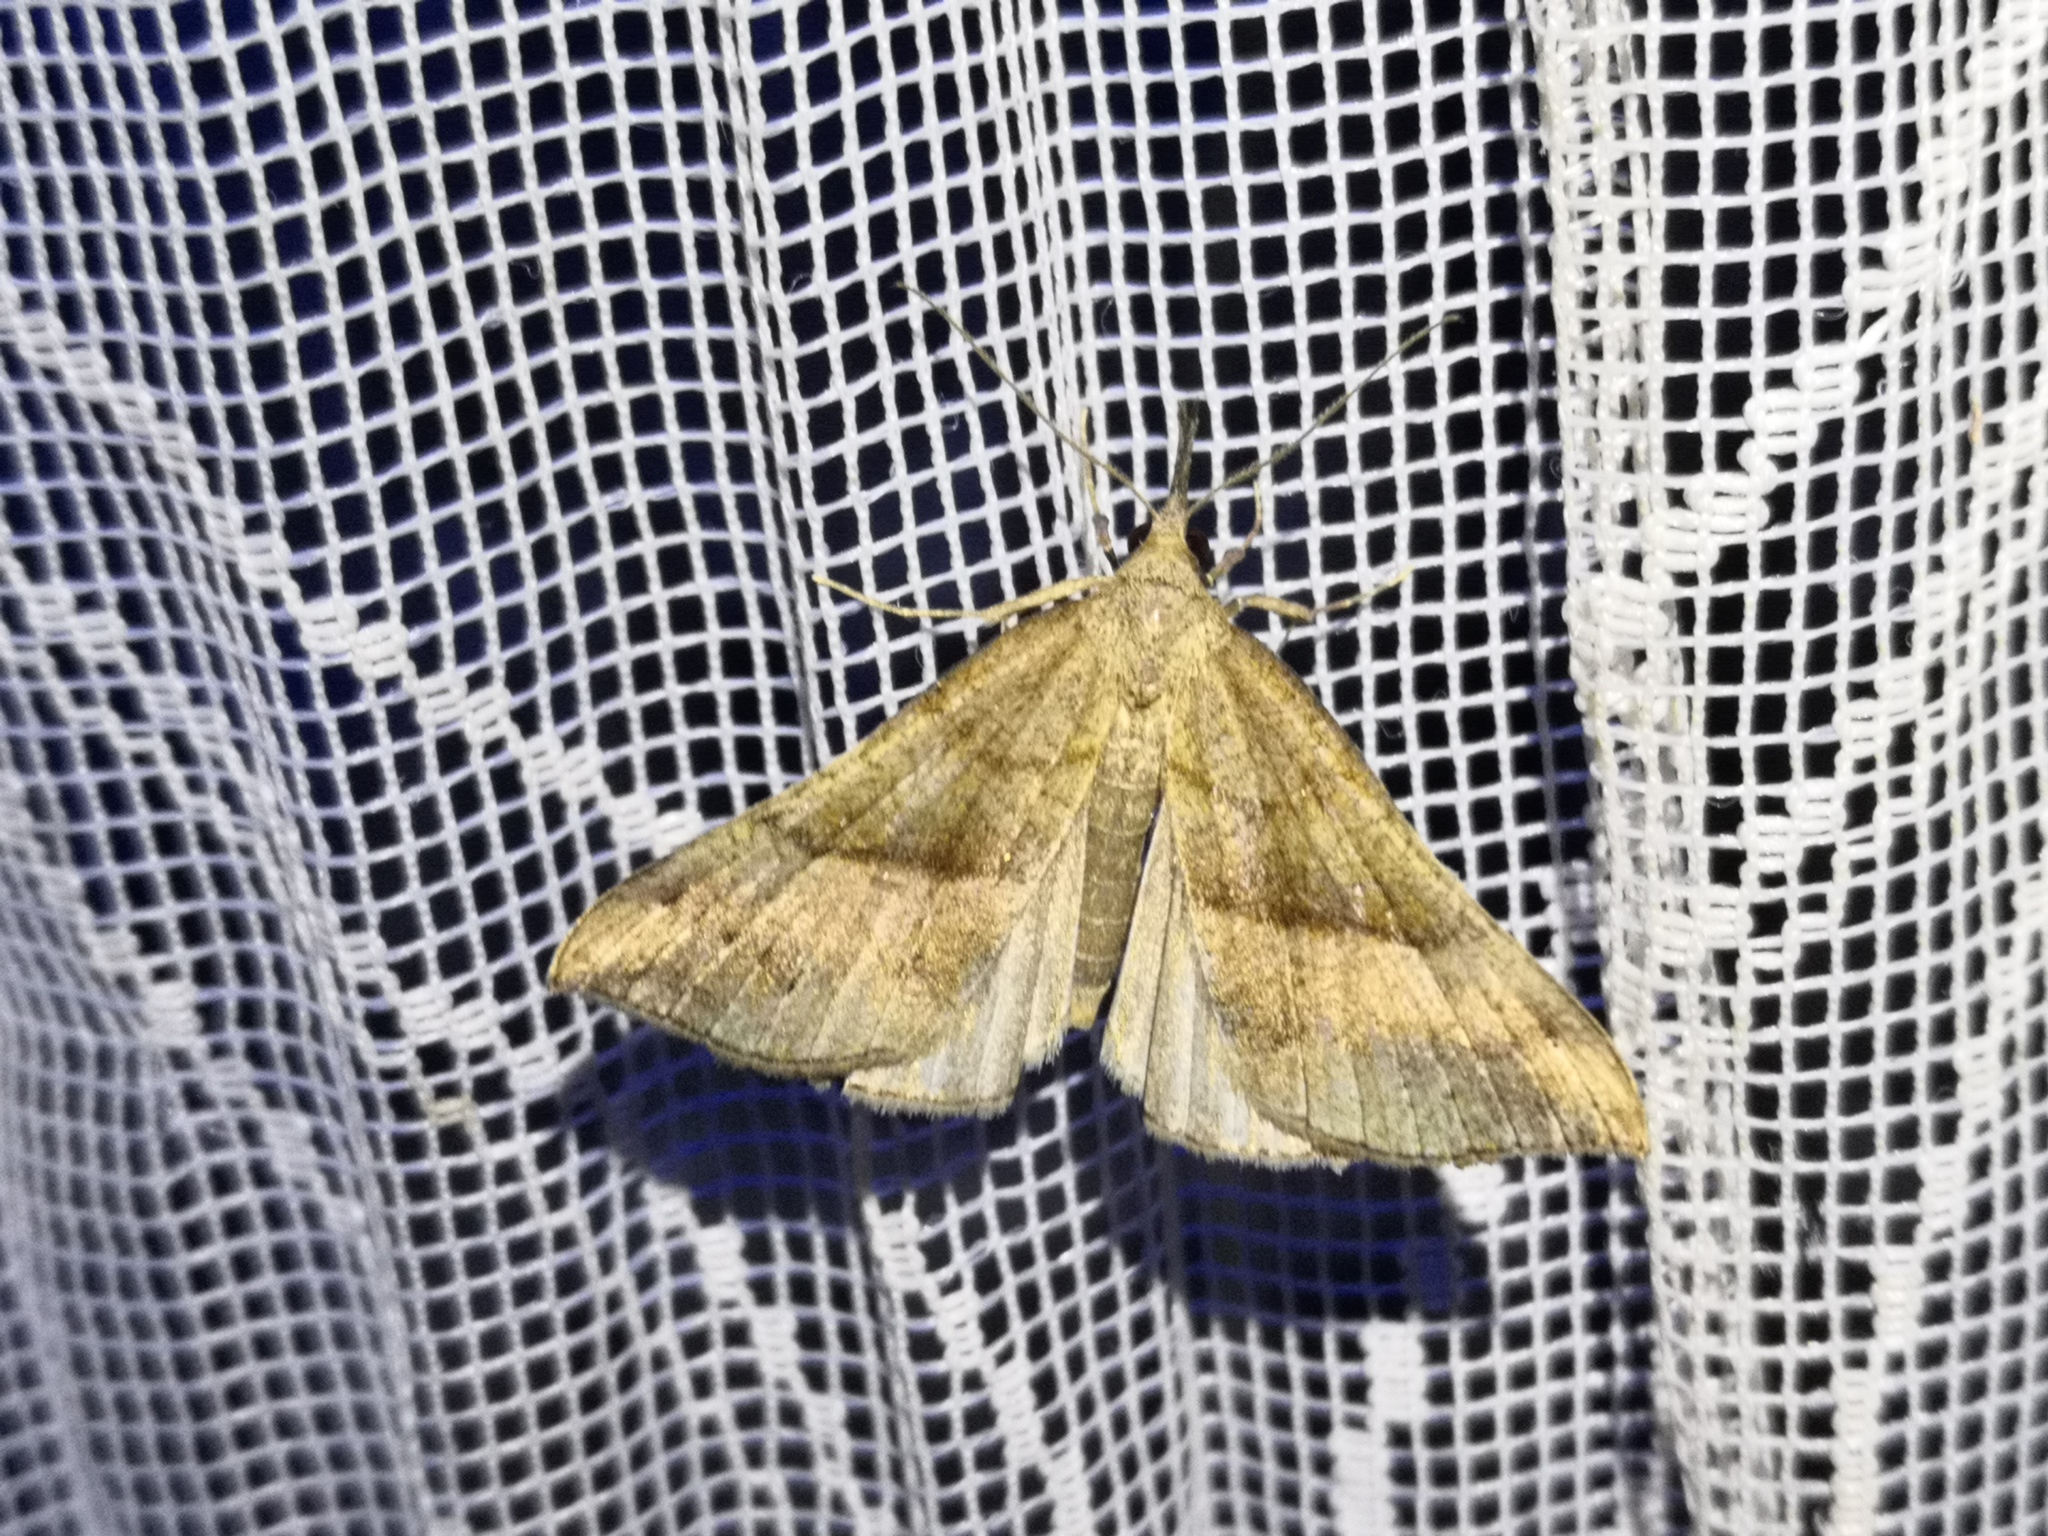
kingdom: Animalia
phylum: Arthropoda
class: Insecta
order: Lepidoptera
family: Erebidae
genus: Hypena
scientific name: Hypena proboscidalis
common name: Snout
